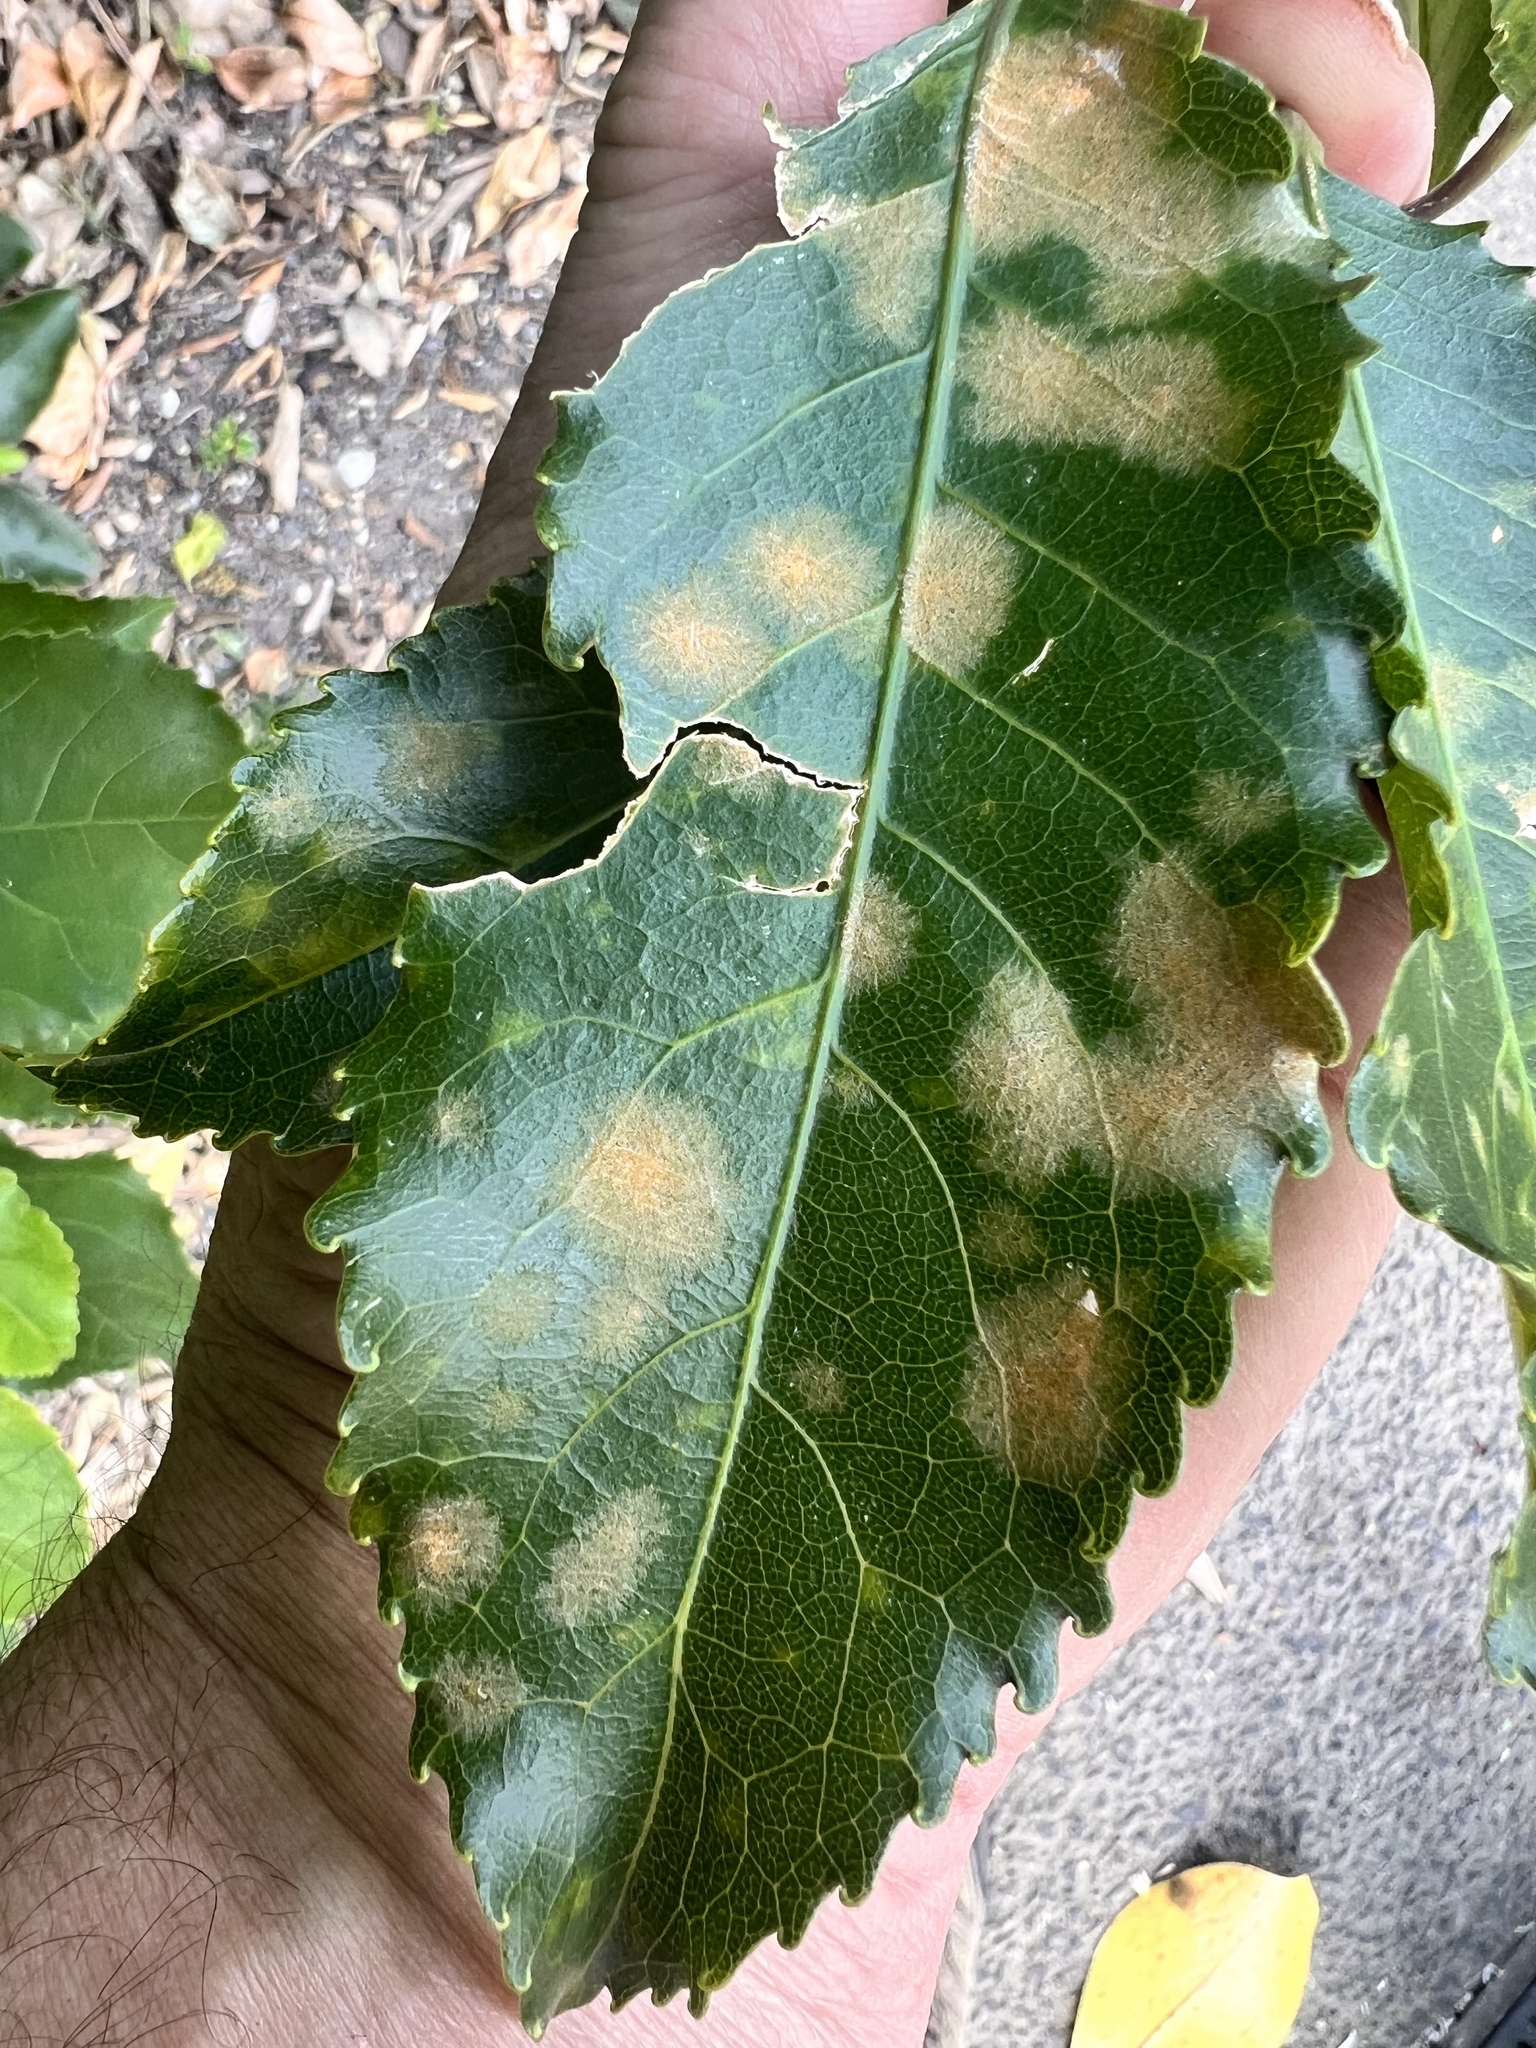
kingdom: Plantae
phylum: Chlorophyta
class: Ulvophyceae
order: Trentepohliales
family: Trentepohliaceae
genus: Cephaleuros
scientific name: Cephaleuros
